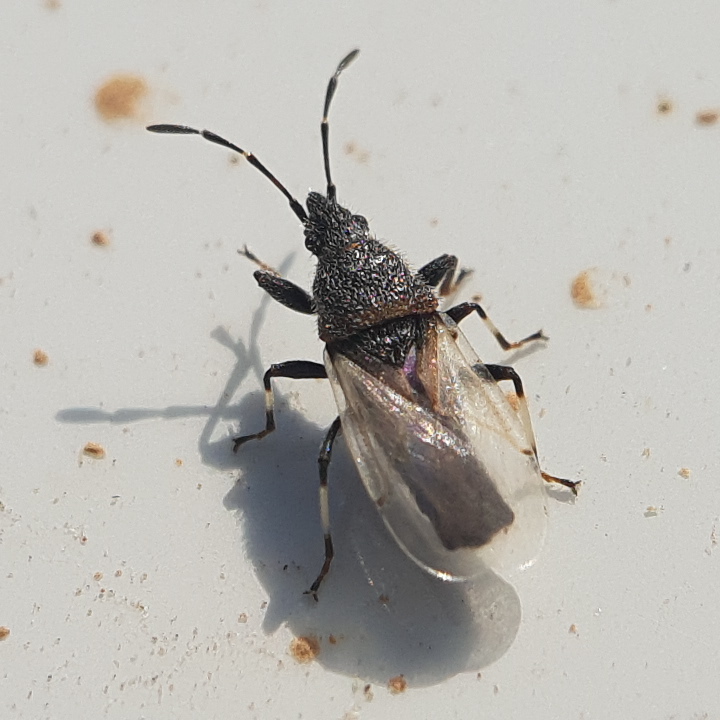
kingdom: Animalia
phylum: Arthropoda
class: Insecta
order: Hemiptera
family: Oxycarenidae
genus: Oxycarenus
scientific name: Oxycarenus hyalinipennis
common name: Cotton seed bug
